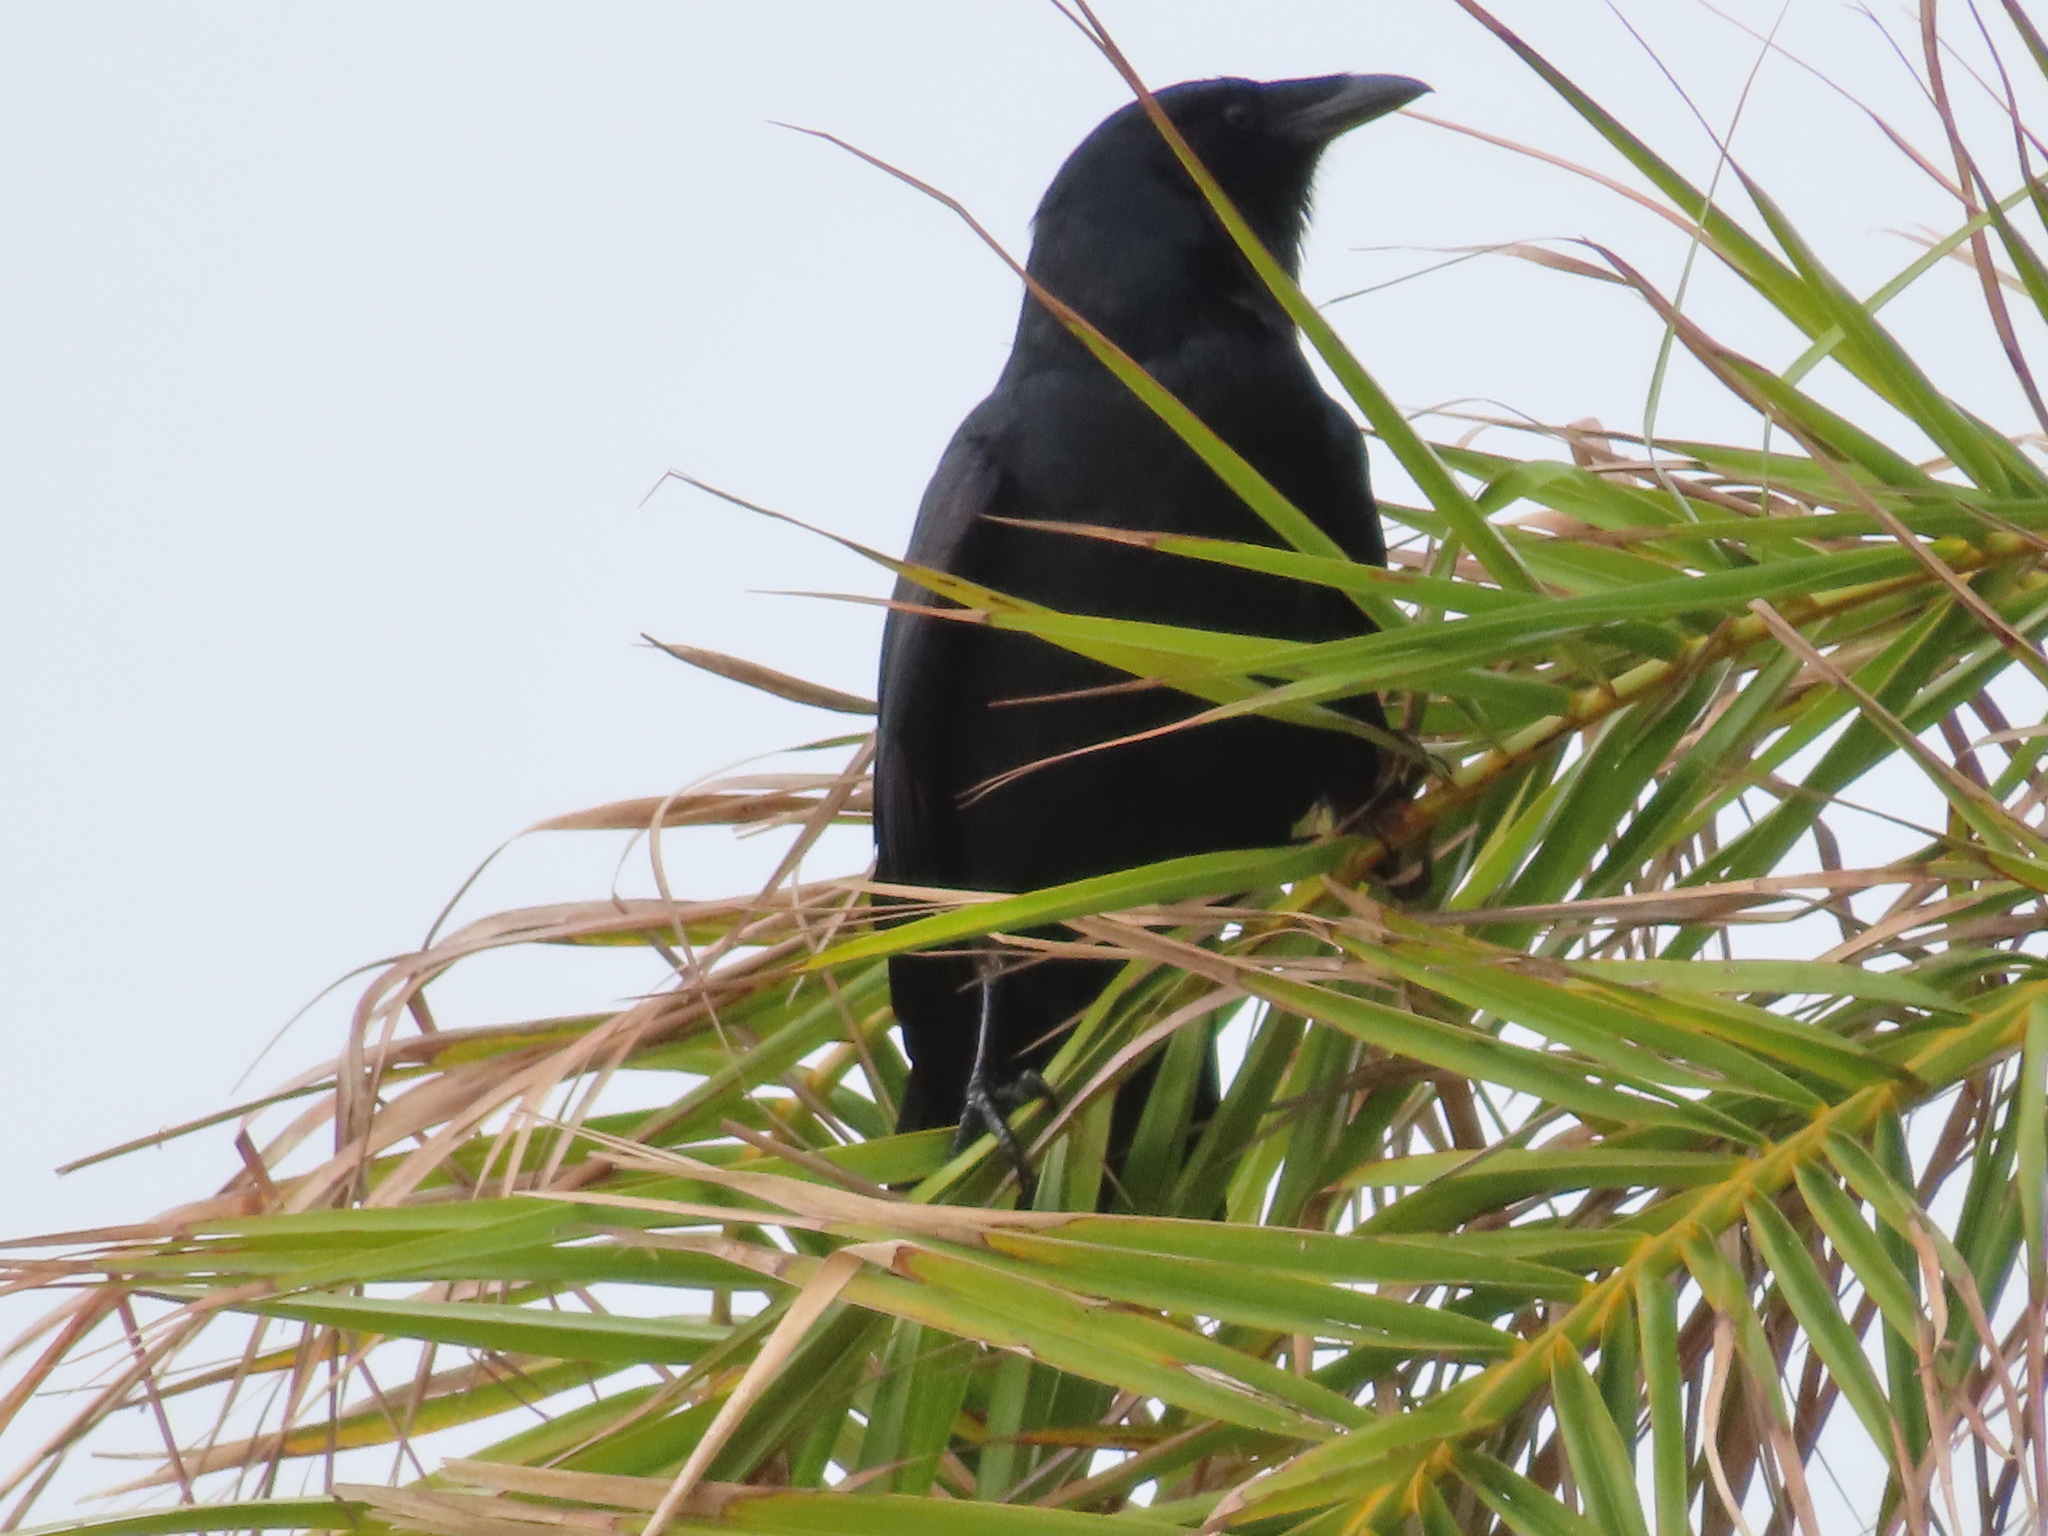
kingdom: Animalia
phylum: Chordata
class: Aves
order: Passeriformes
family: Corvidae
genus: Corvus
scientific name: Corvus ossifragus
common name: Fish crow
